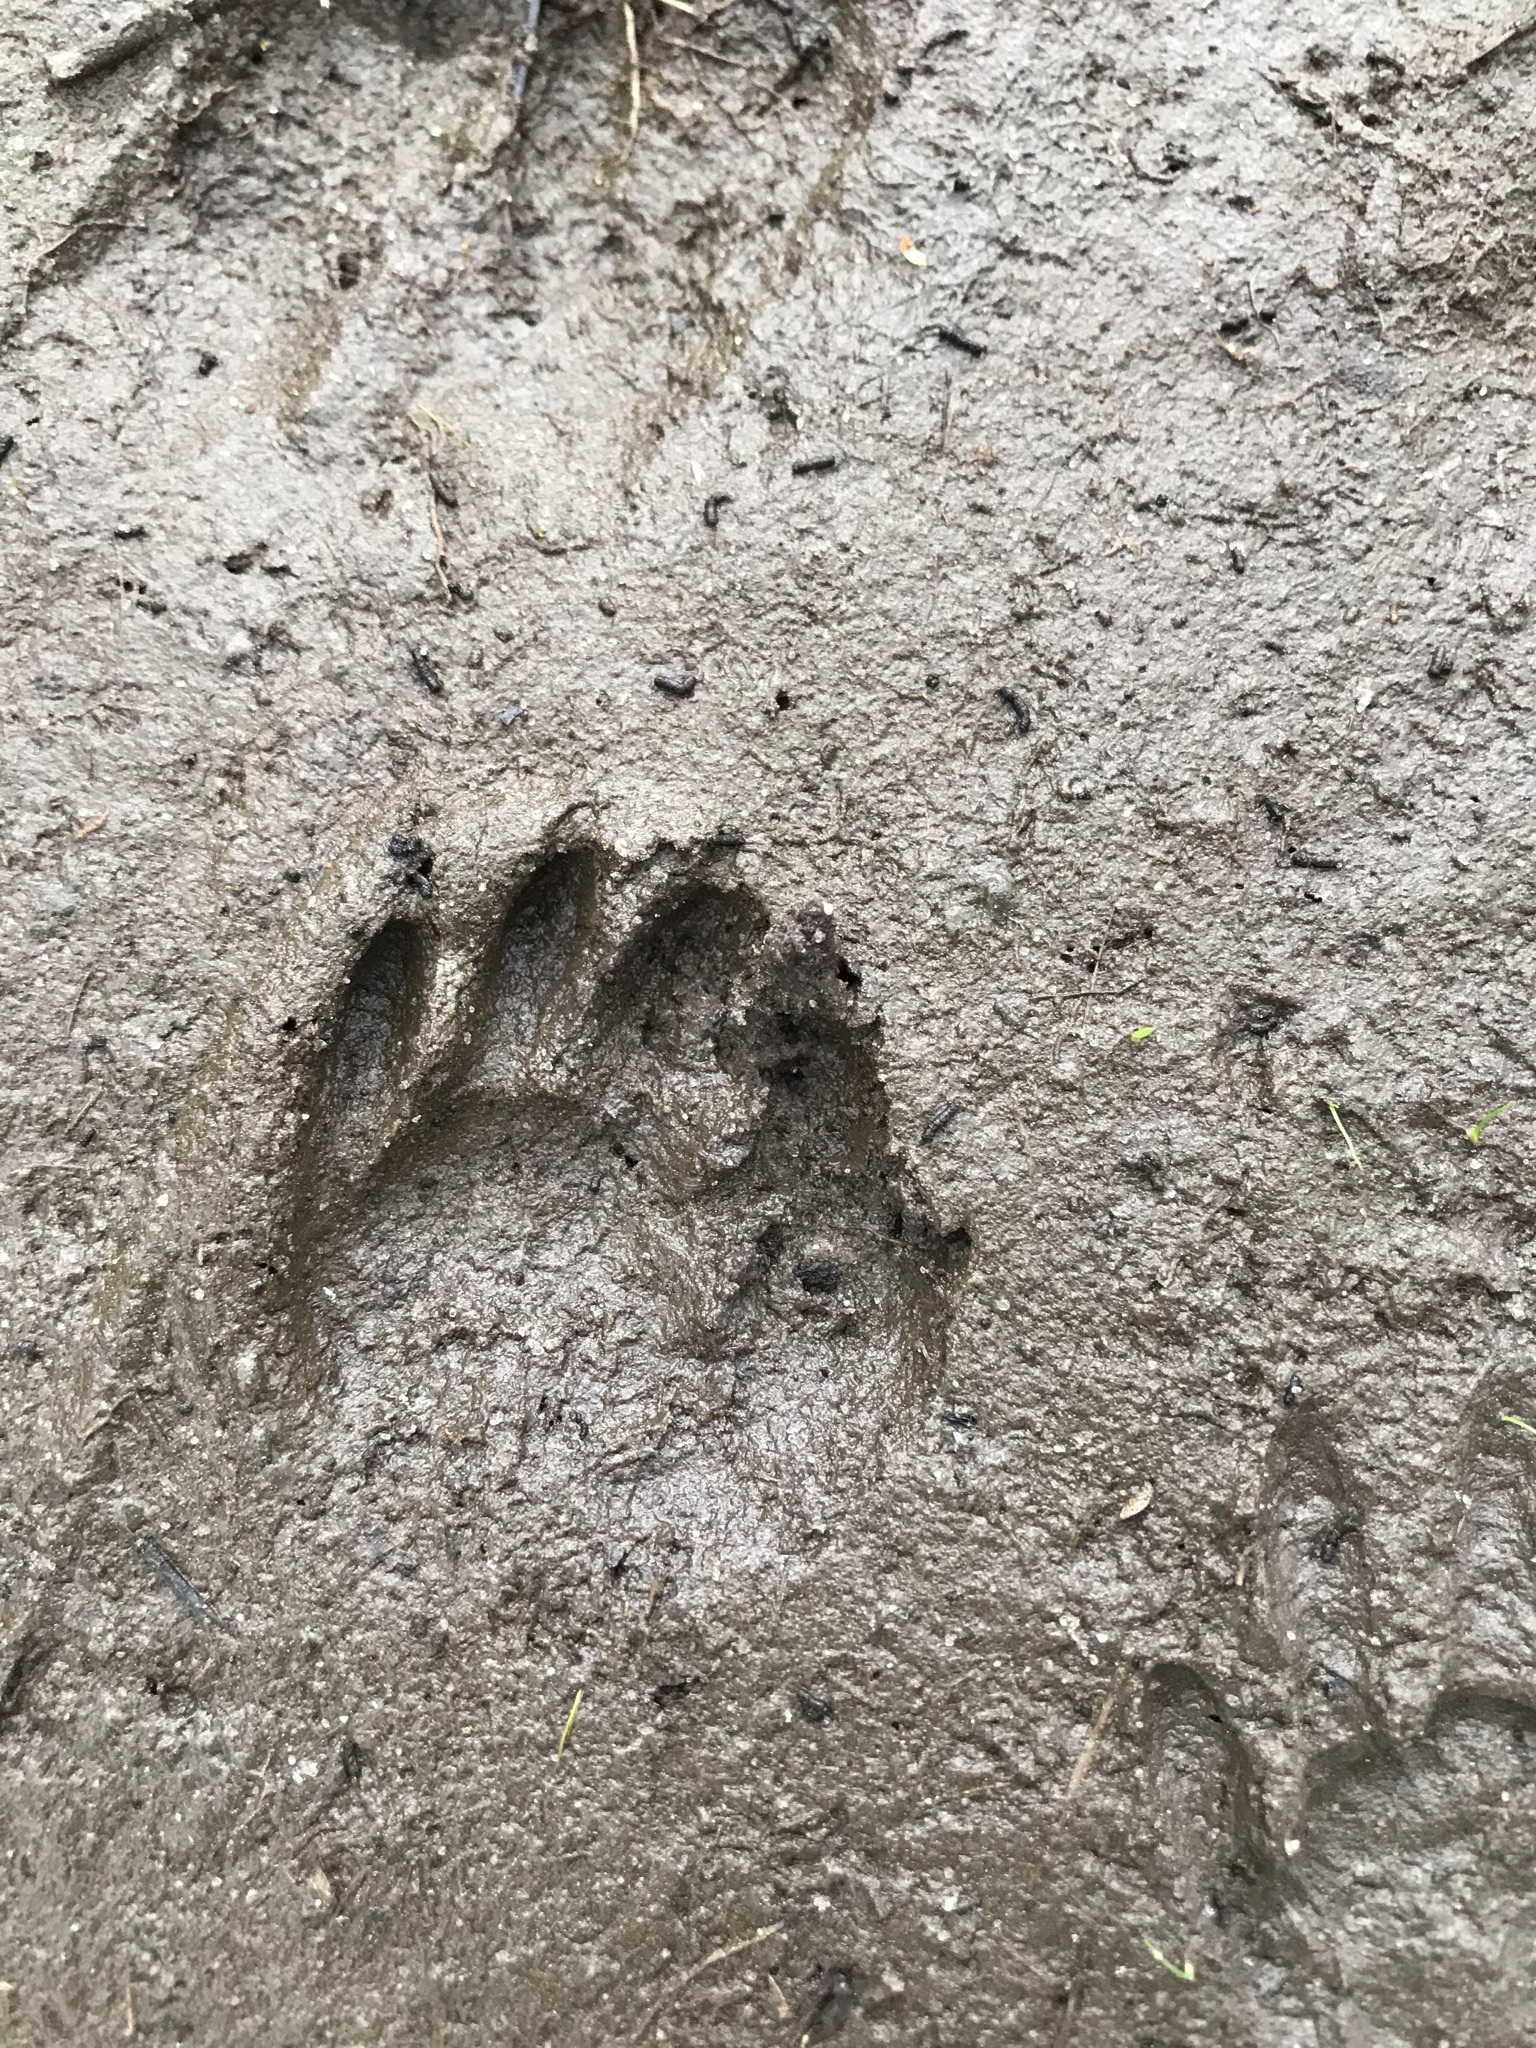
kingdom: Animalia
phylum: Chordata
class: Mammalia
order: Carnivora
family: Procyonidae
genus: Procyon
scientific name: Procyon lotor
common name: Raccoon
